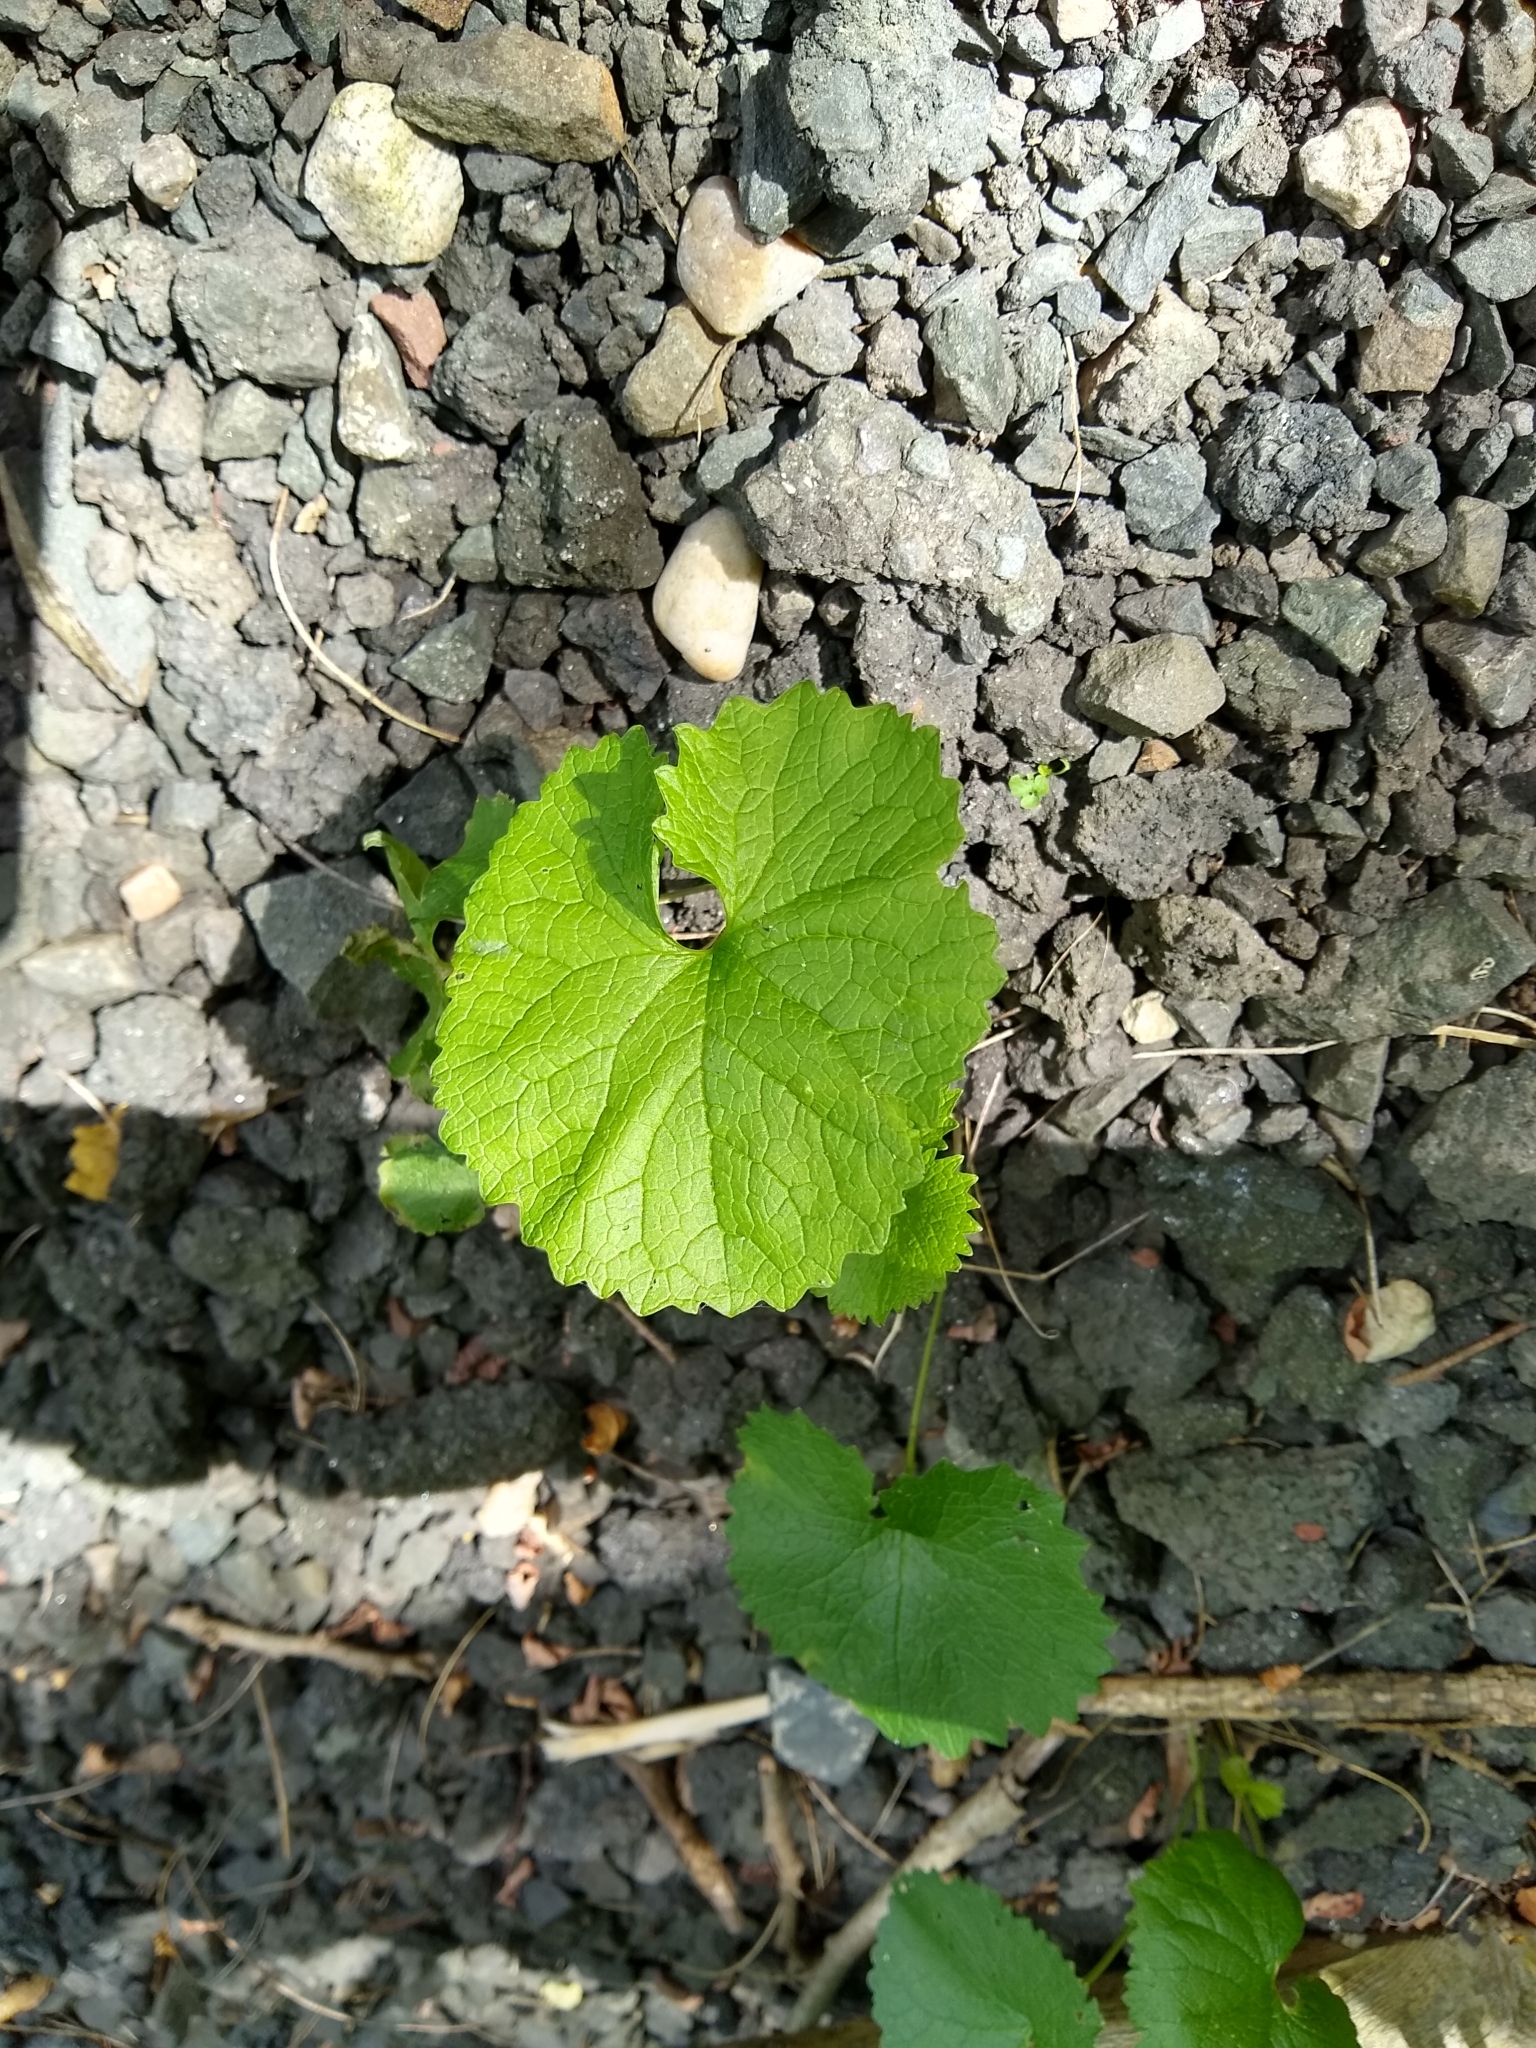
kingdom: Plantae
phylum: Tracheophyta
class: Magnoliopsida
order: Brassicales
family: Brassicaceae
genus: Alliaria
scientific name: Alliaria petiolata
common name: Garlic mustard
